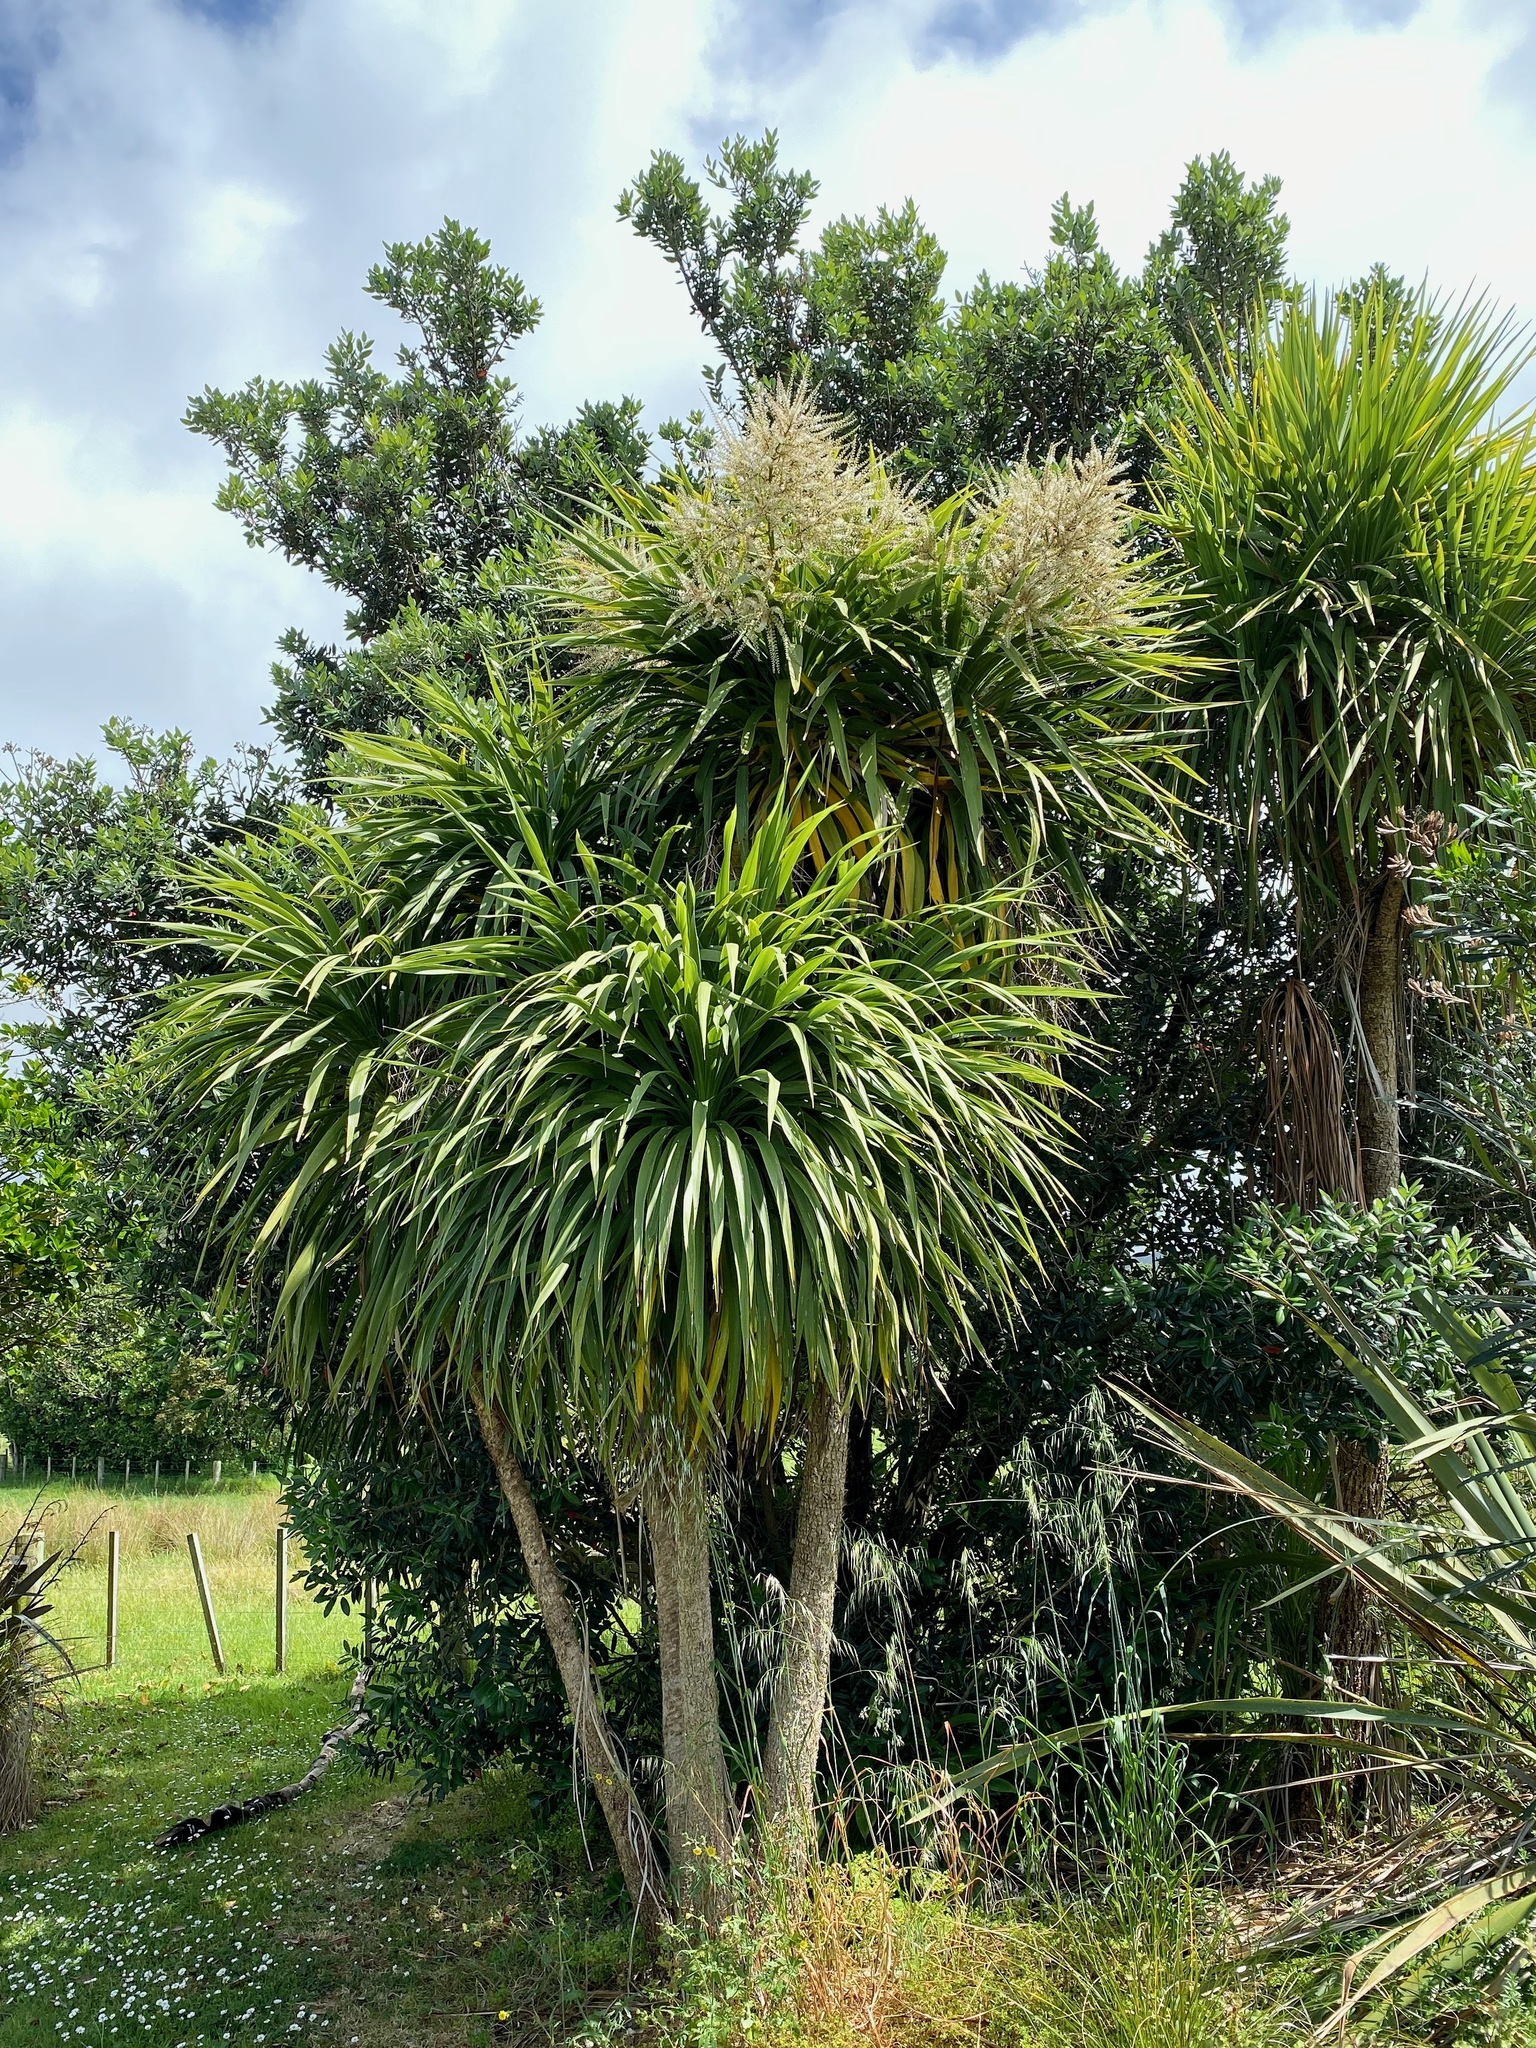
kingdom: Plantae
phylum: Tracheophyta
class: Liliopsida
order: Asparagales
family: Asparagaceae
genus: Cordyline
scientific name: Cordyline australis
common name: Cabbage-palm
